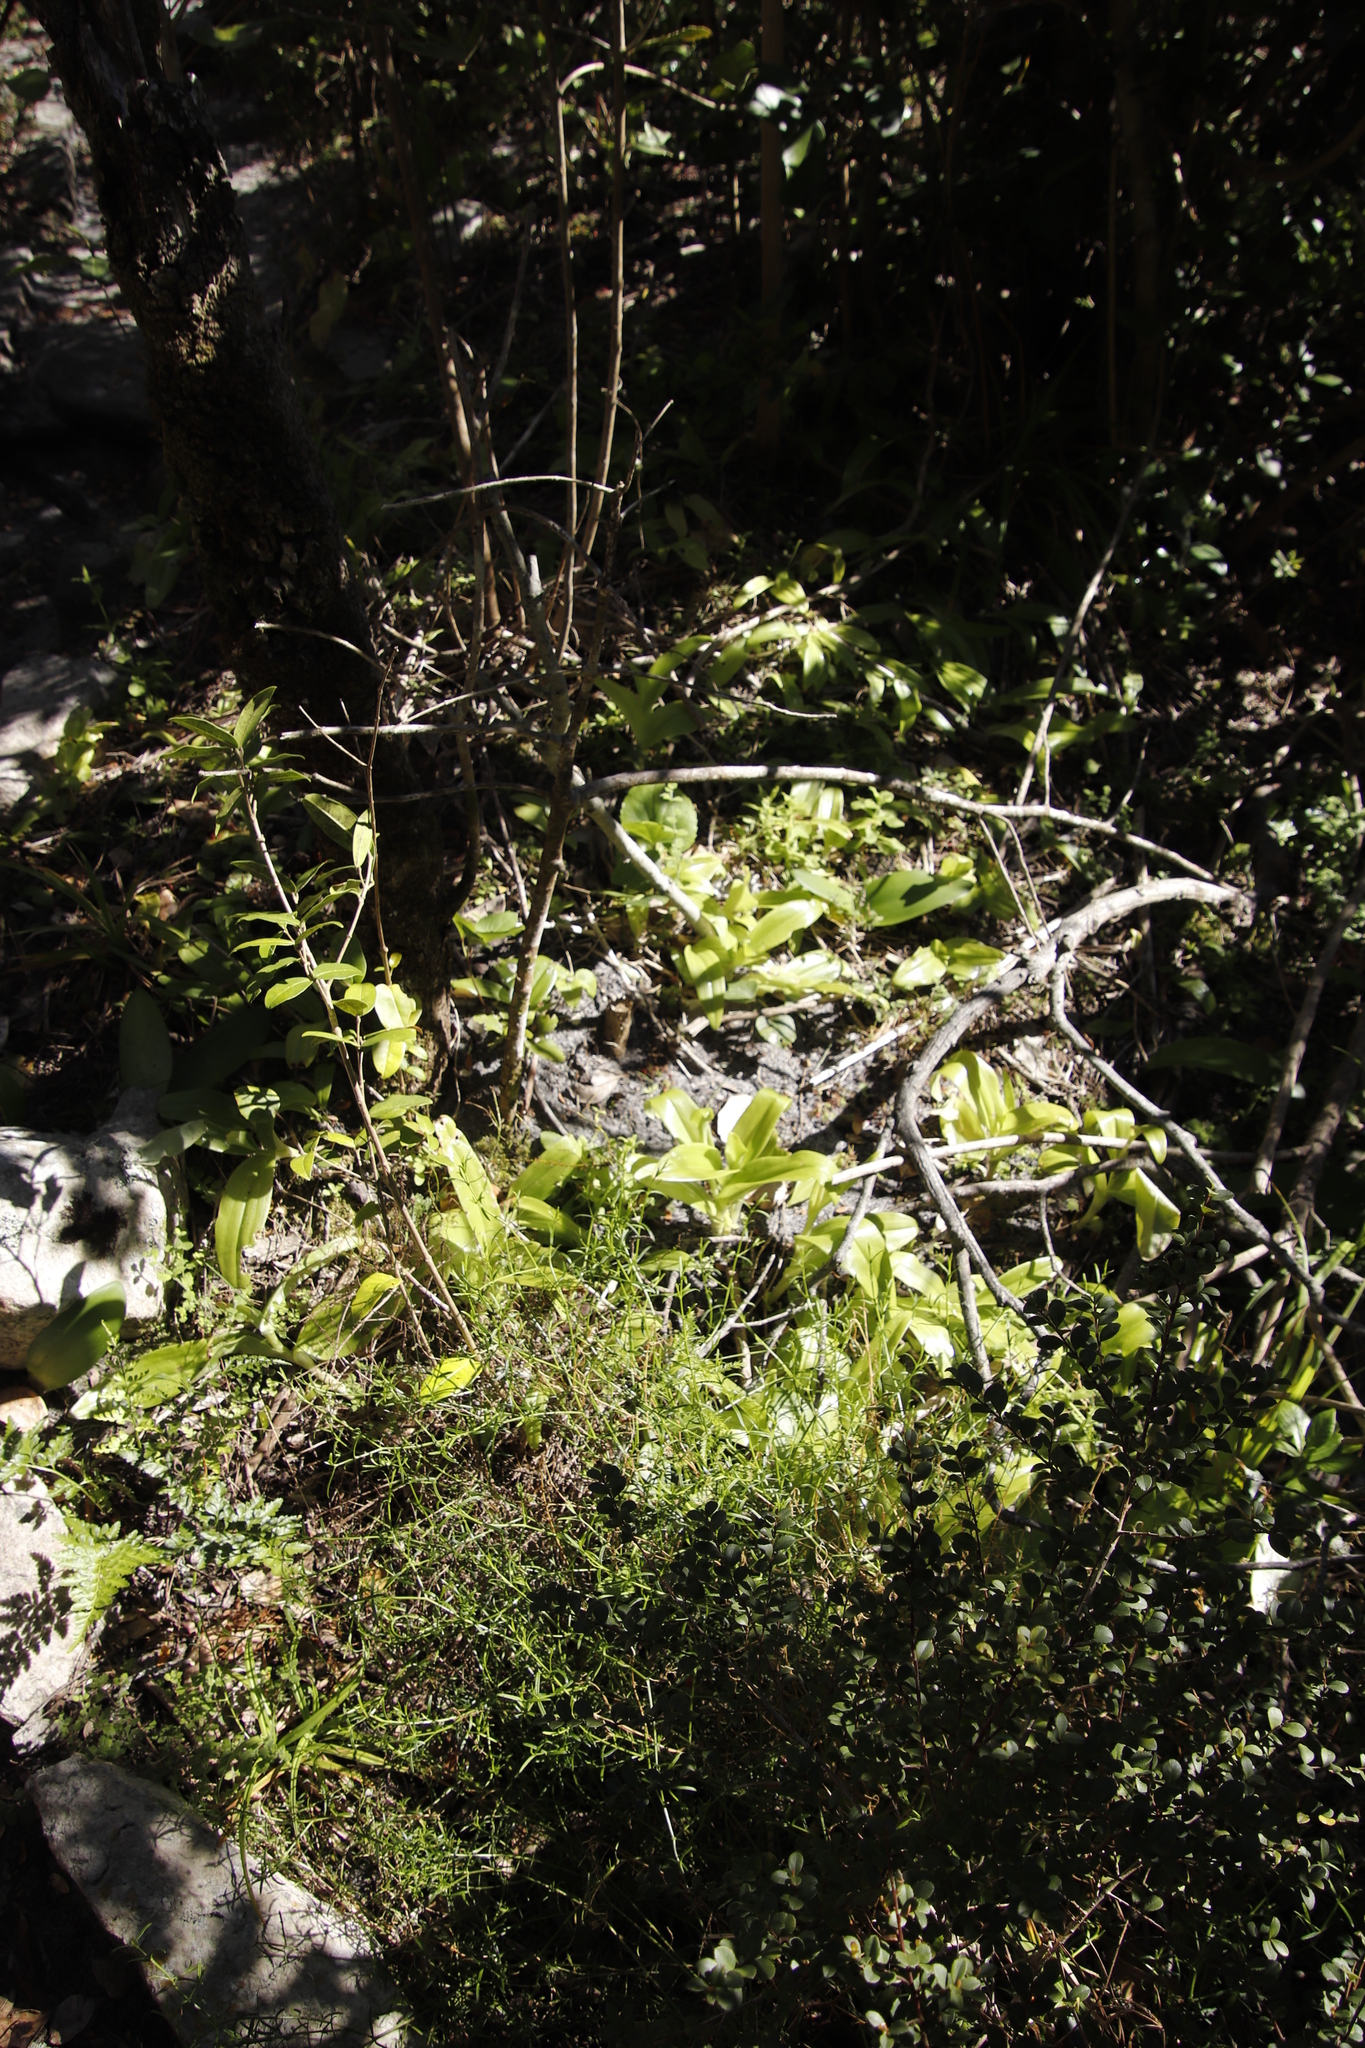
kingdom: Plantae
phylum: Tracheophyta
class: Liliopsida
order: Asparagales
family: Orchidaceae
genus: Satyrium
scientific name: Satyrium odorum
